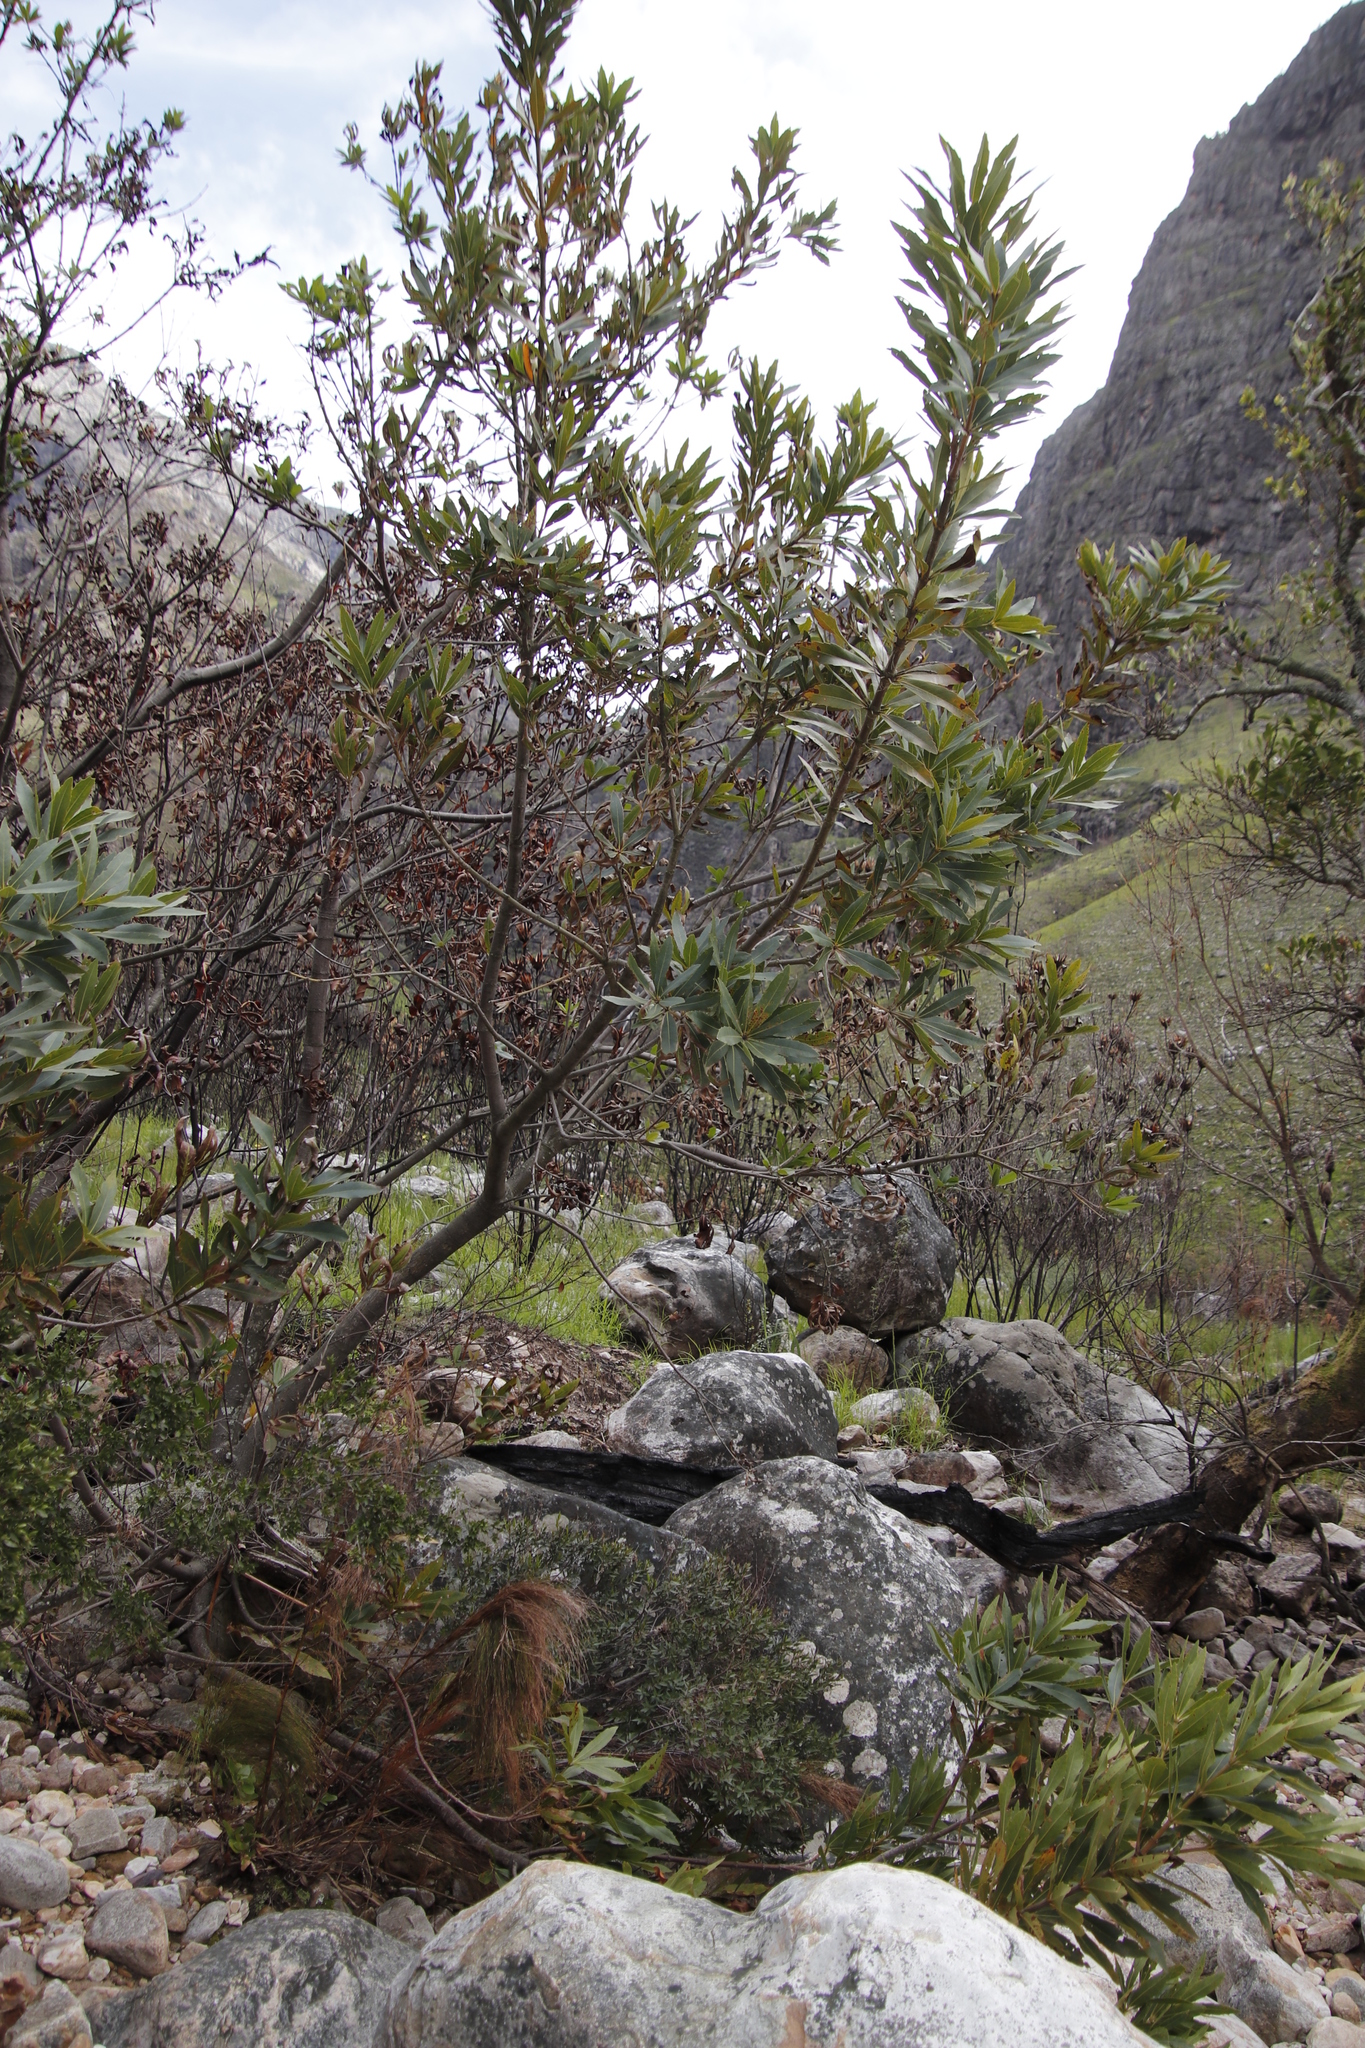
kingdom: Plantae
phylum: Tracheophyta
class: Magnoliopsida
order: Proteales
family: Proteaceae
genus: Brabejum
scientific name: Brabejum stellatifolium
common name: Wild almond
